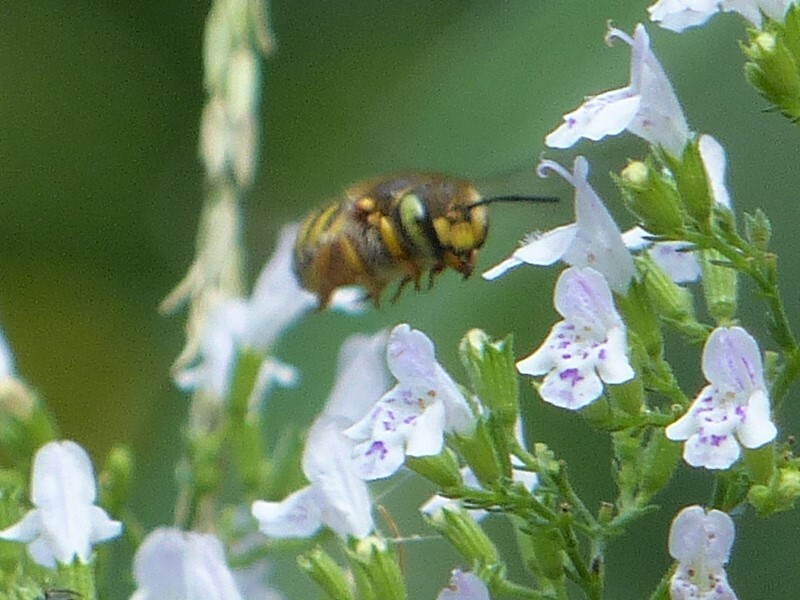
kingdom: Animalia
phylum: Arthropoda
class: Insecta
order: Hymenoptera
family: Megachilidae
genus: Anthidium
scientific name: Anthidium oblongatum
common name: Oblong wool carder bee
